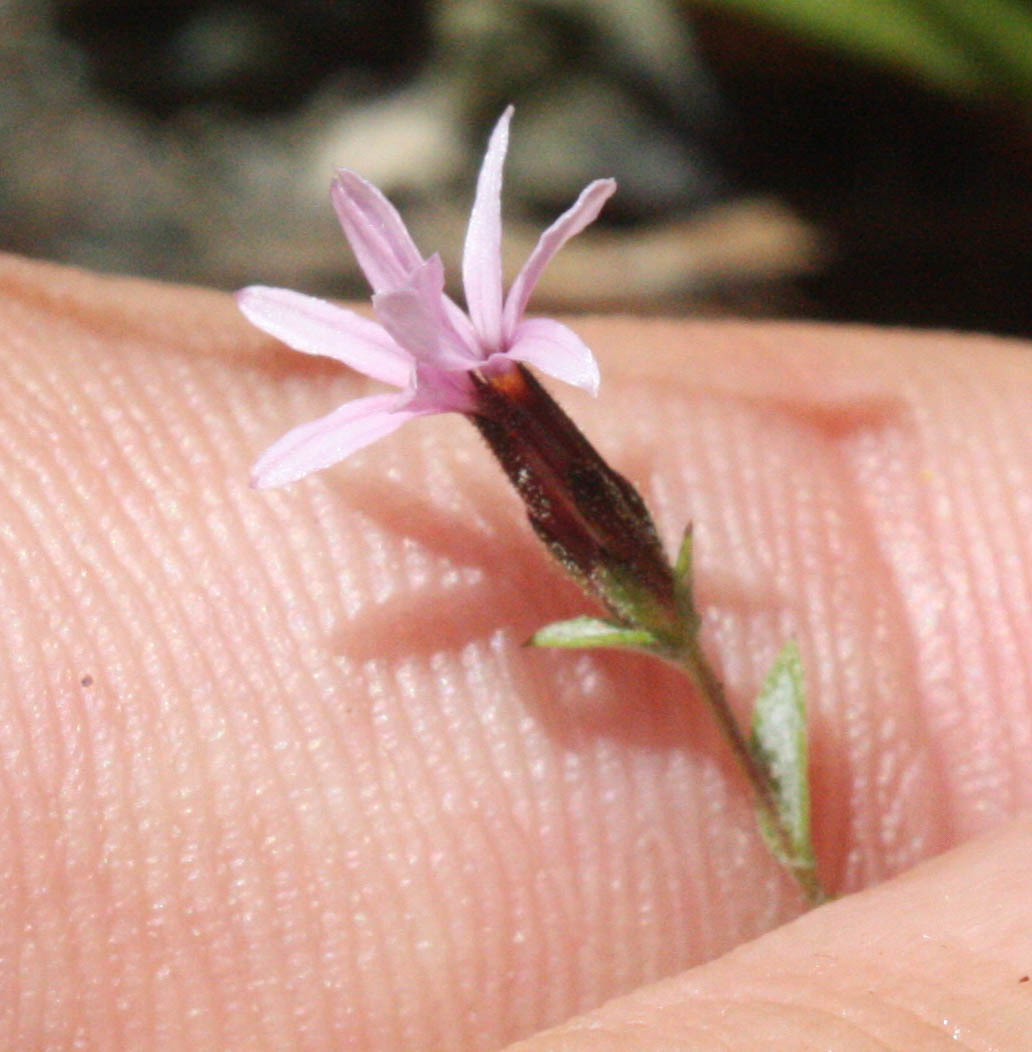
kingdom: Plantae
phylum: Tracheophyta
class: Magnoliopsida
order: Asterales
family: Asteraceae
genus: Lessingia
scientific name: Lessingia micradenia
